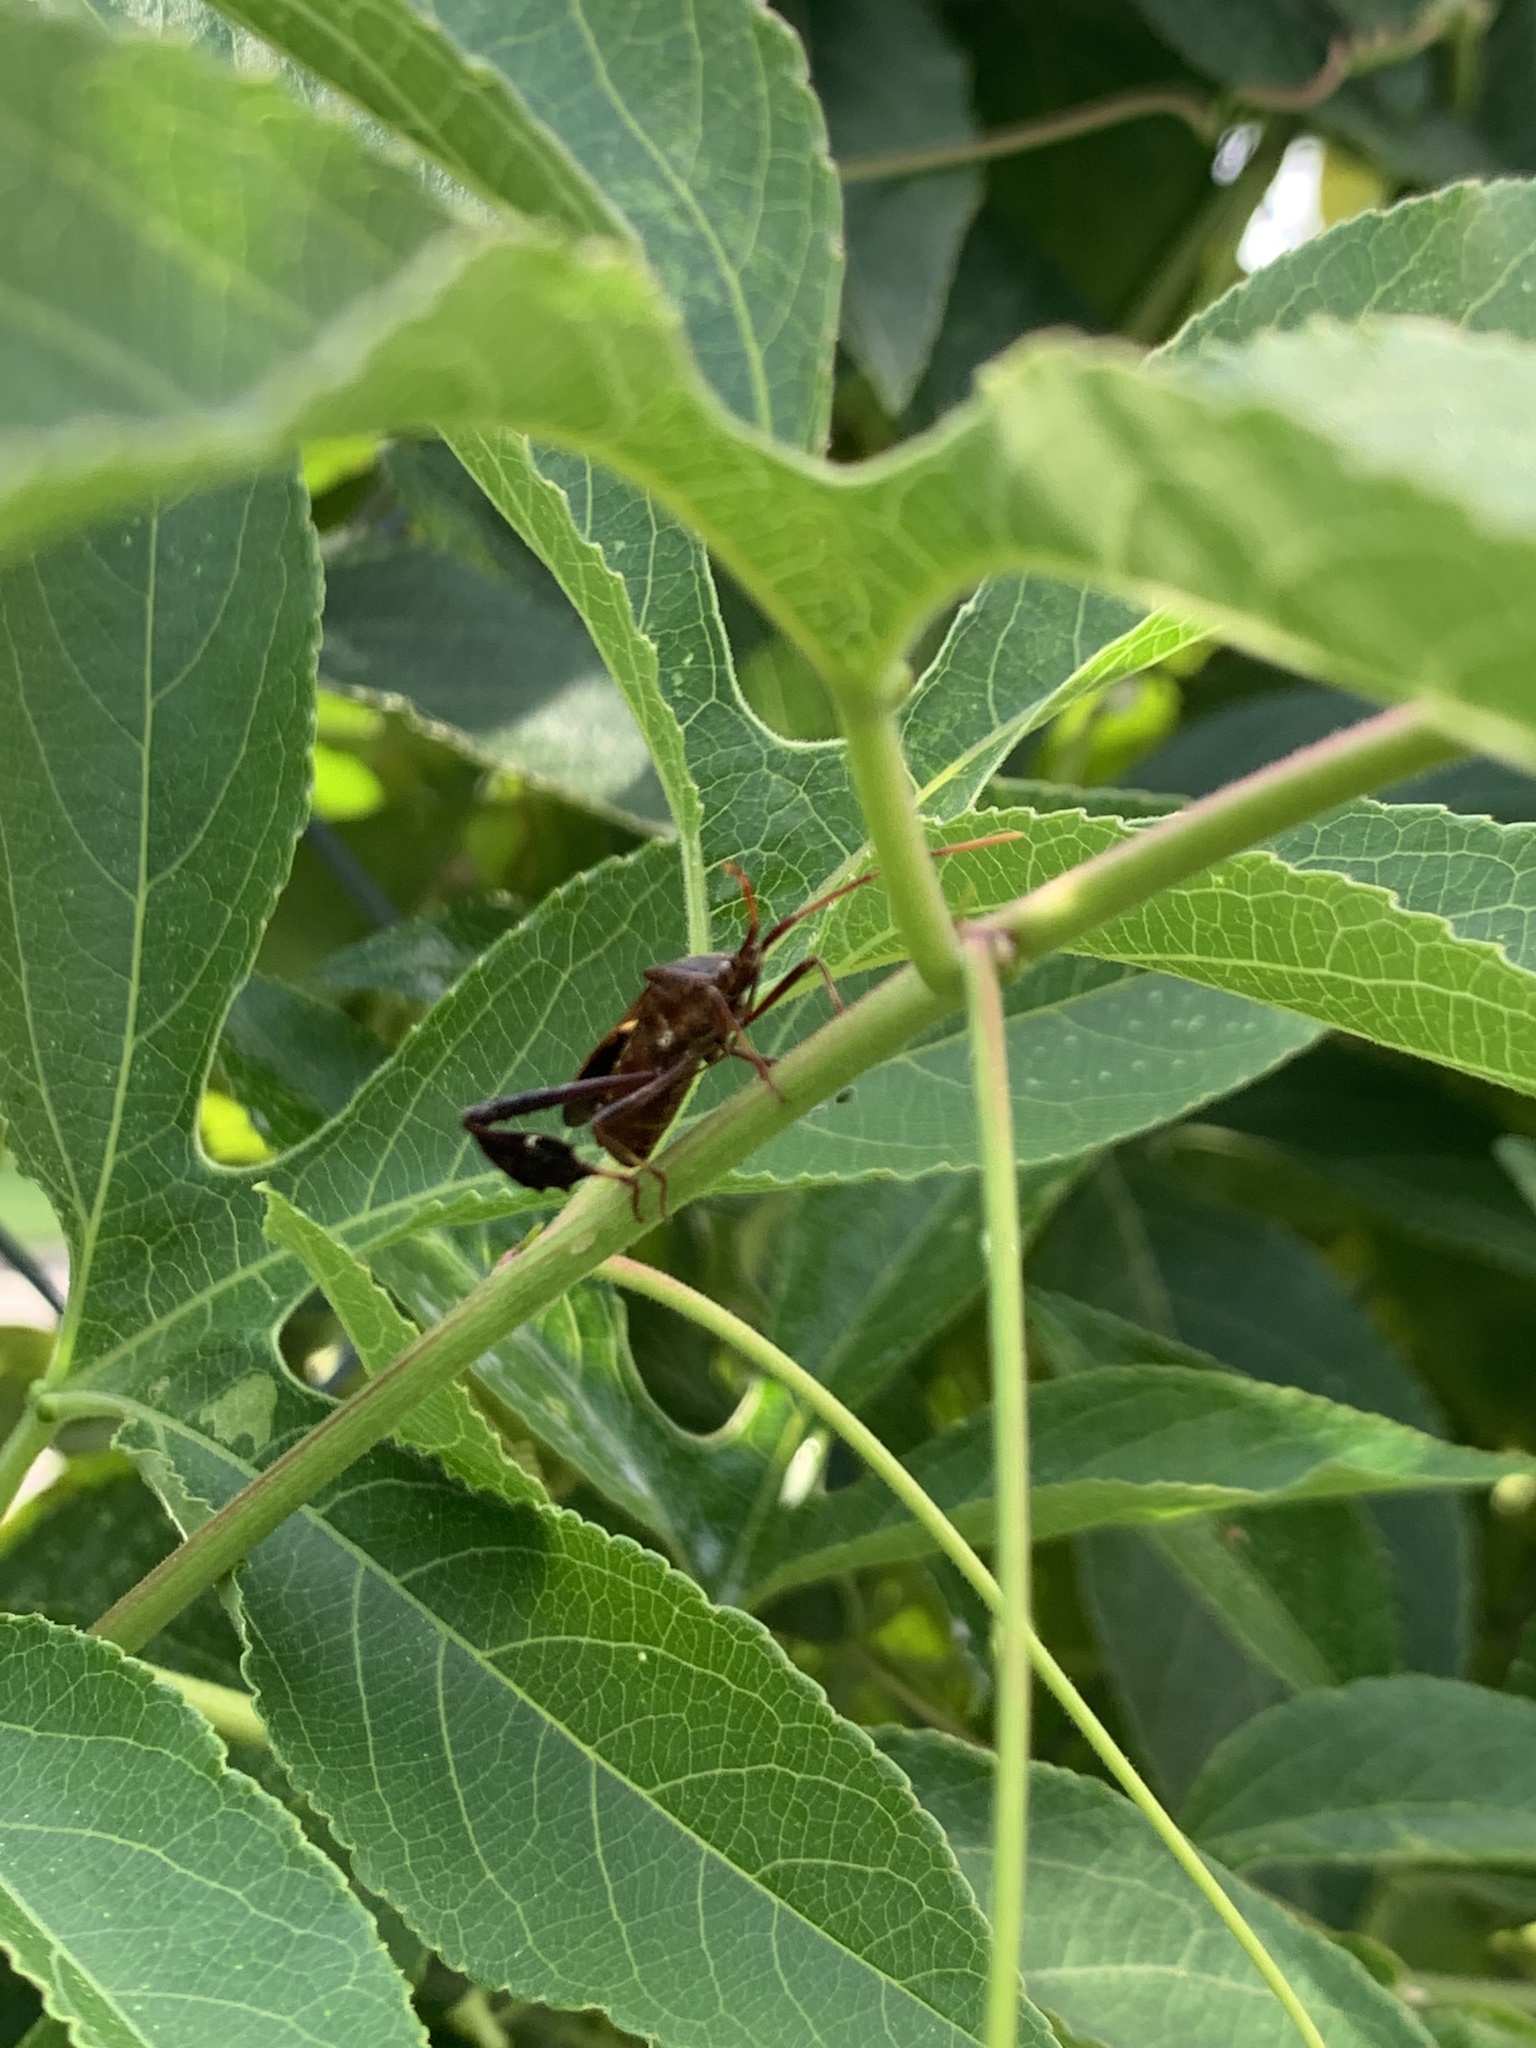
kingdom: Animalia
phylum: Arthropoda
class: Insecta
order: Hemiptera
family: Coreidae
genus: Leptoglossus
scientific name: Leptoglossus phyllopus
